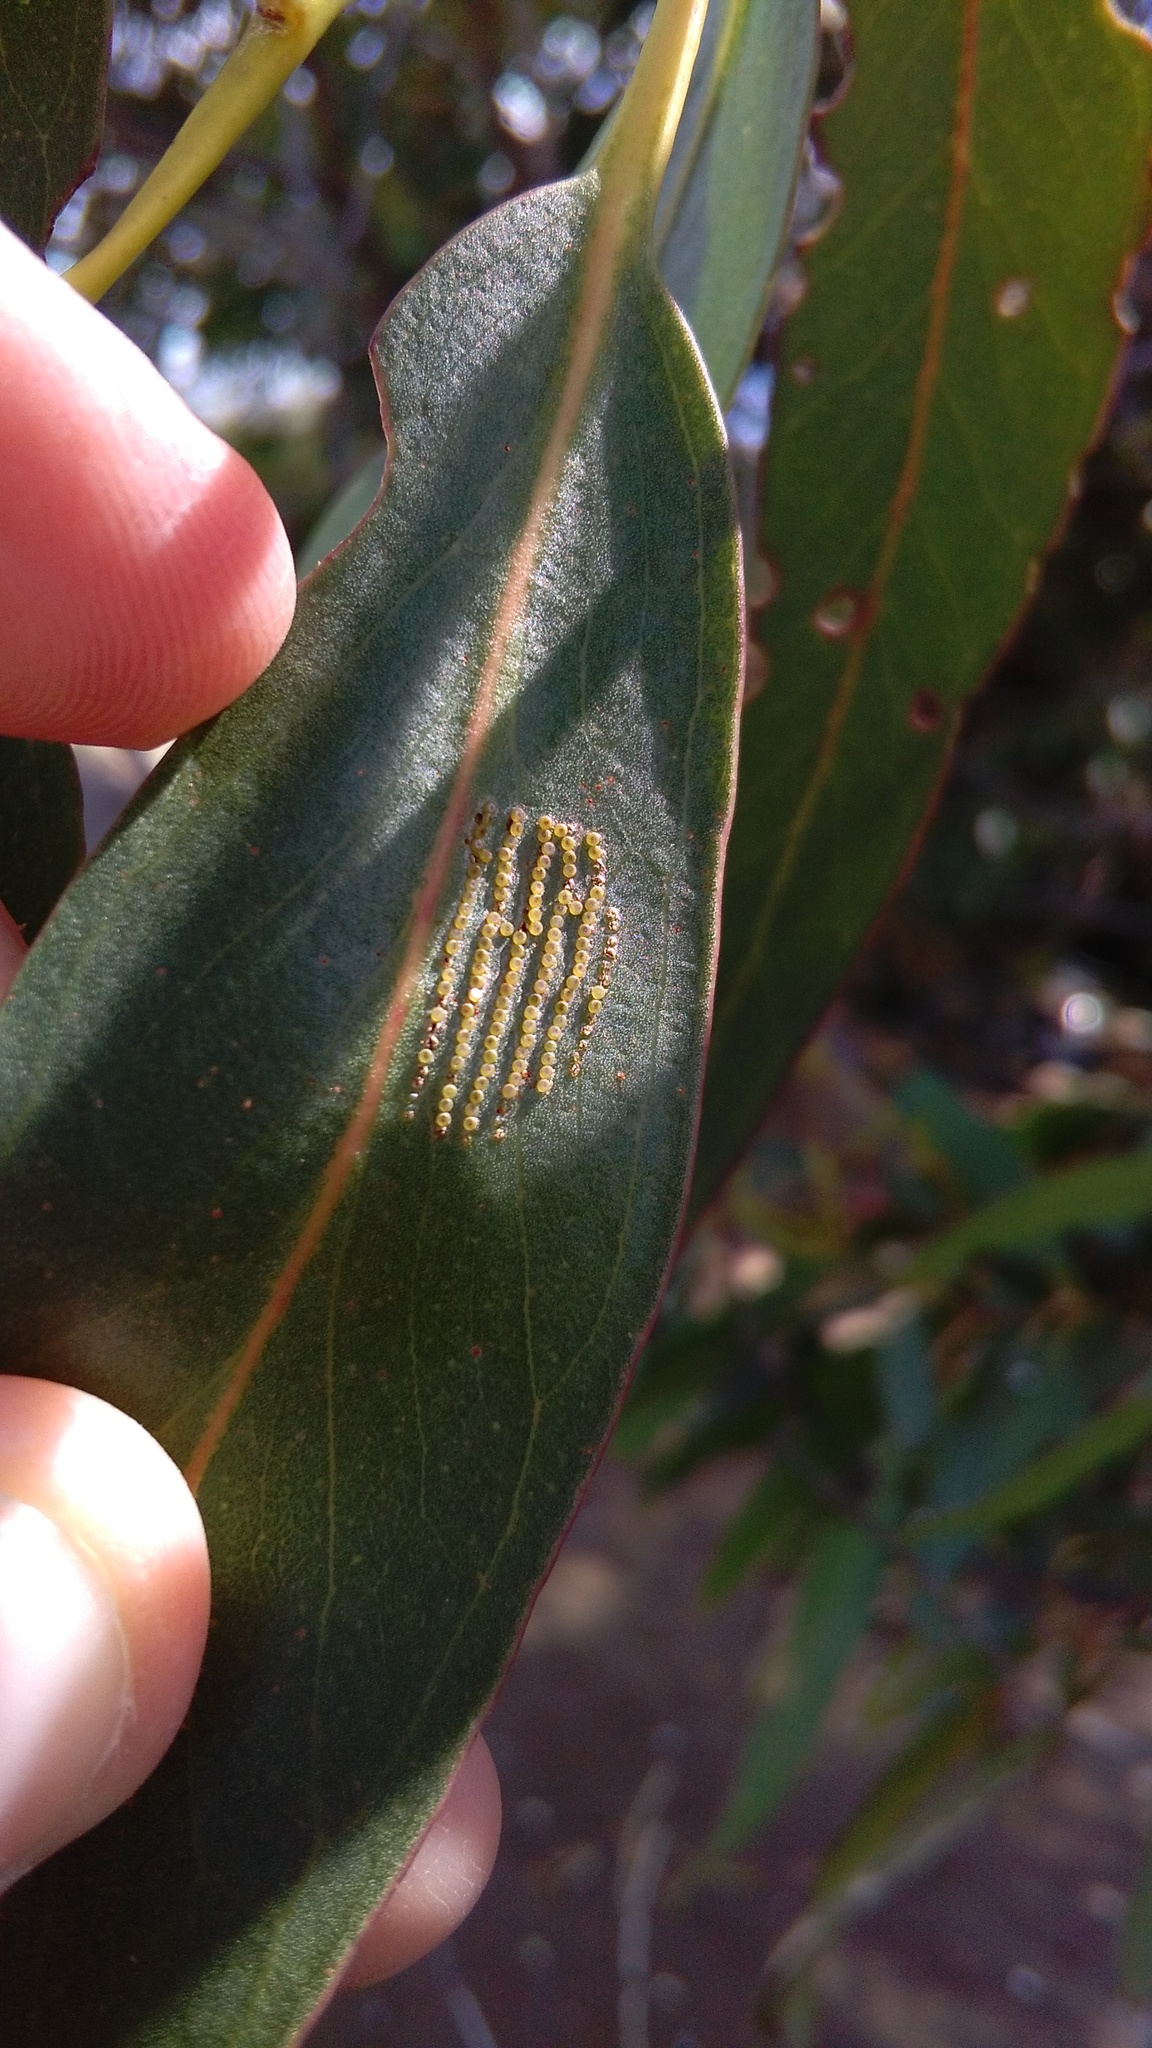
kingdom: Animalia
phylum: Arthropoda
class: Insecta
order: Lepidoptera
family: Nolidae
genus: Uraba
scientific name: Uraba lugens
